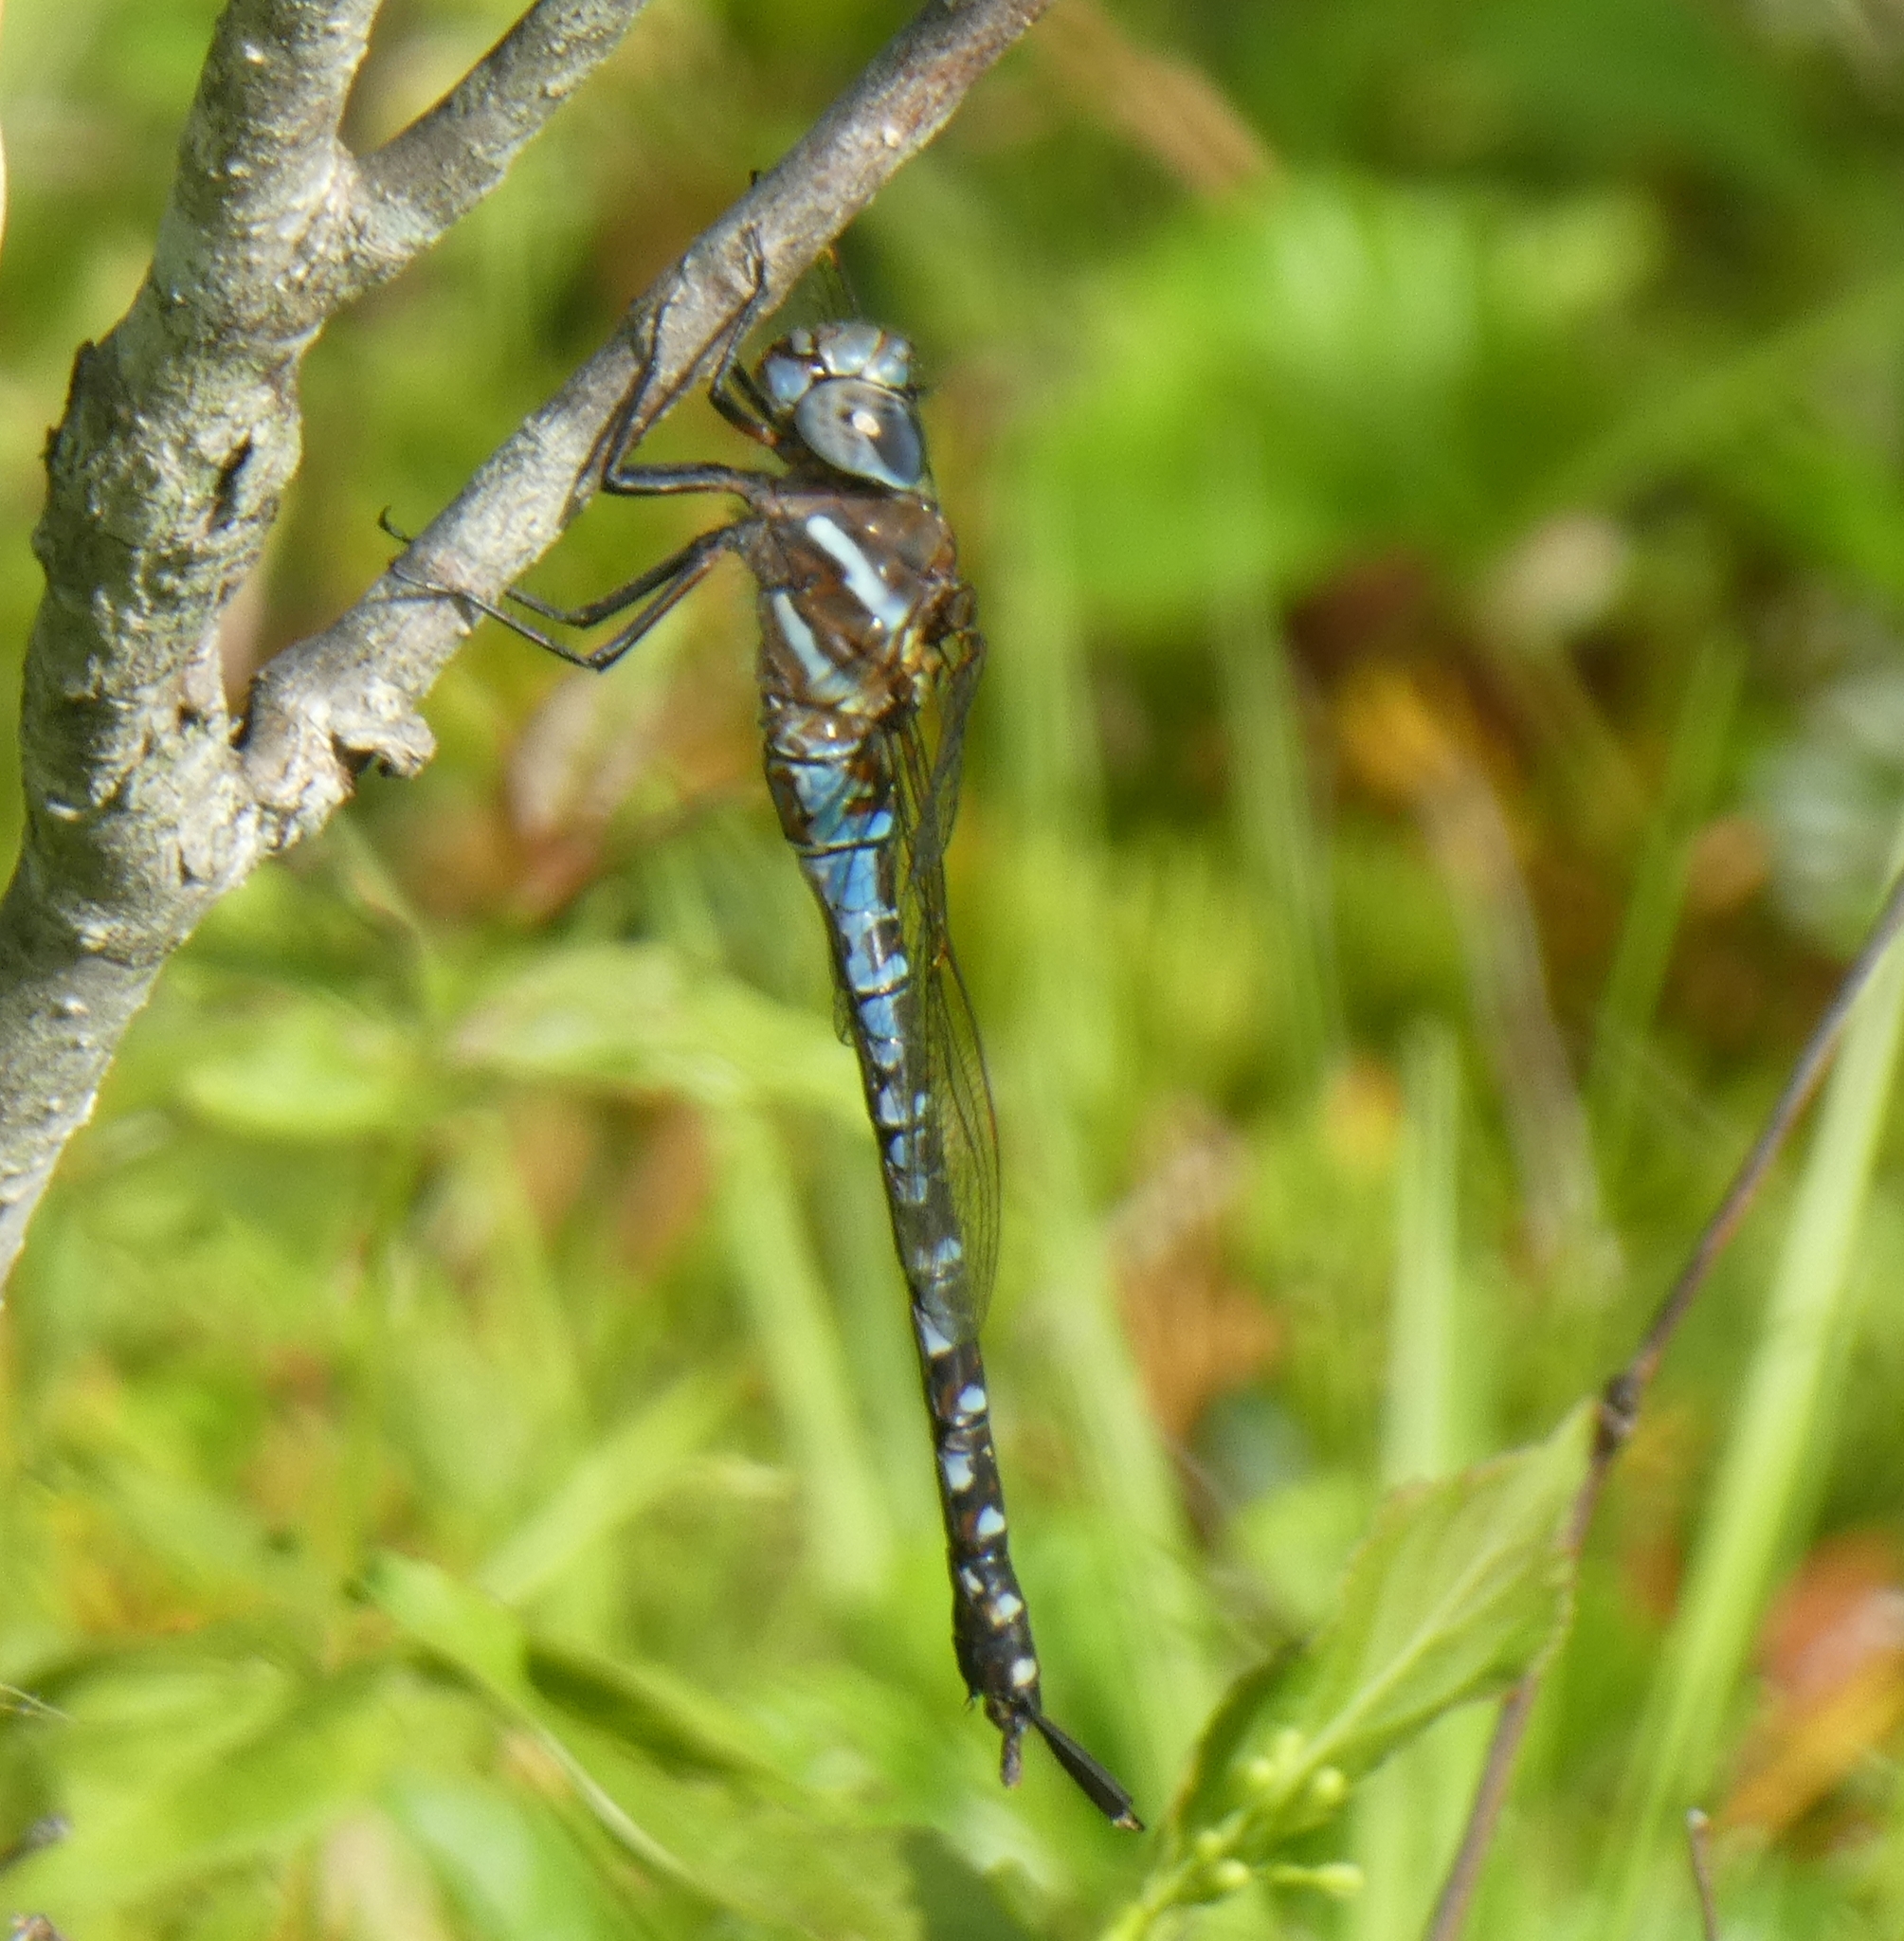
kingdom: Animalia
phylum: Arthropoda
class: Insecta
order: Odonata
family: Aeshnidae
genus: Rhionaeschna
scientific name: Rhionaeschna mutata
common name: Spatterdock darner
